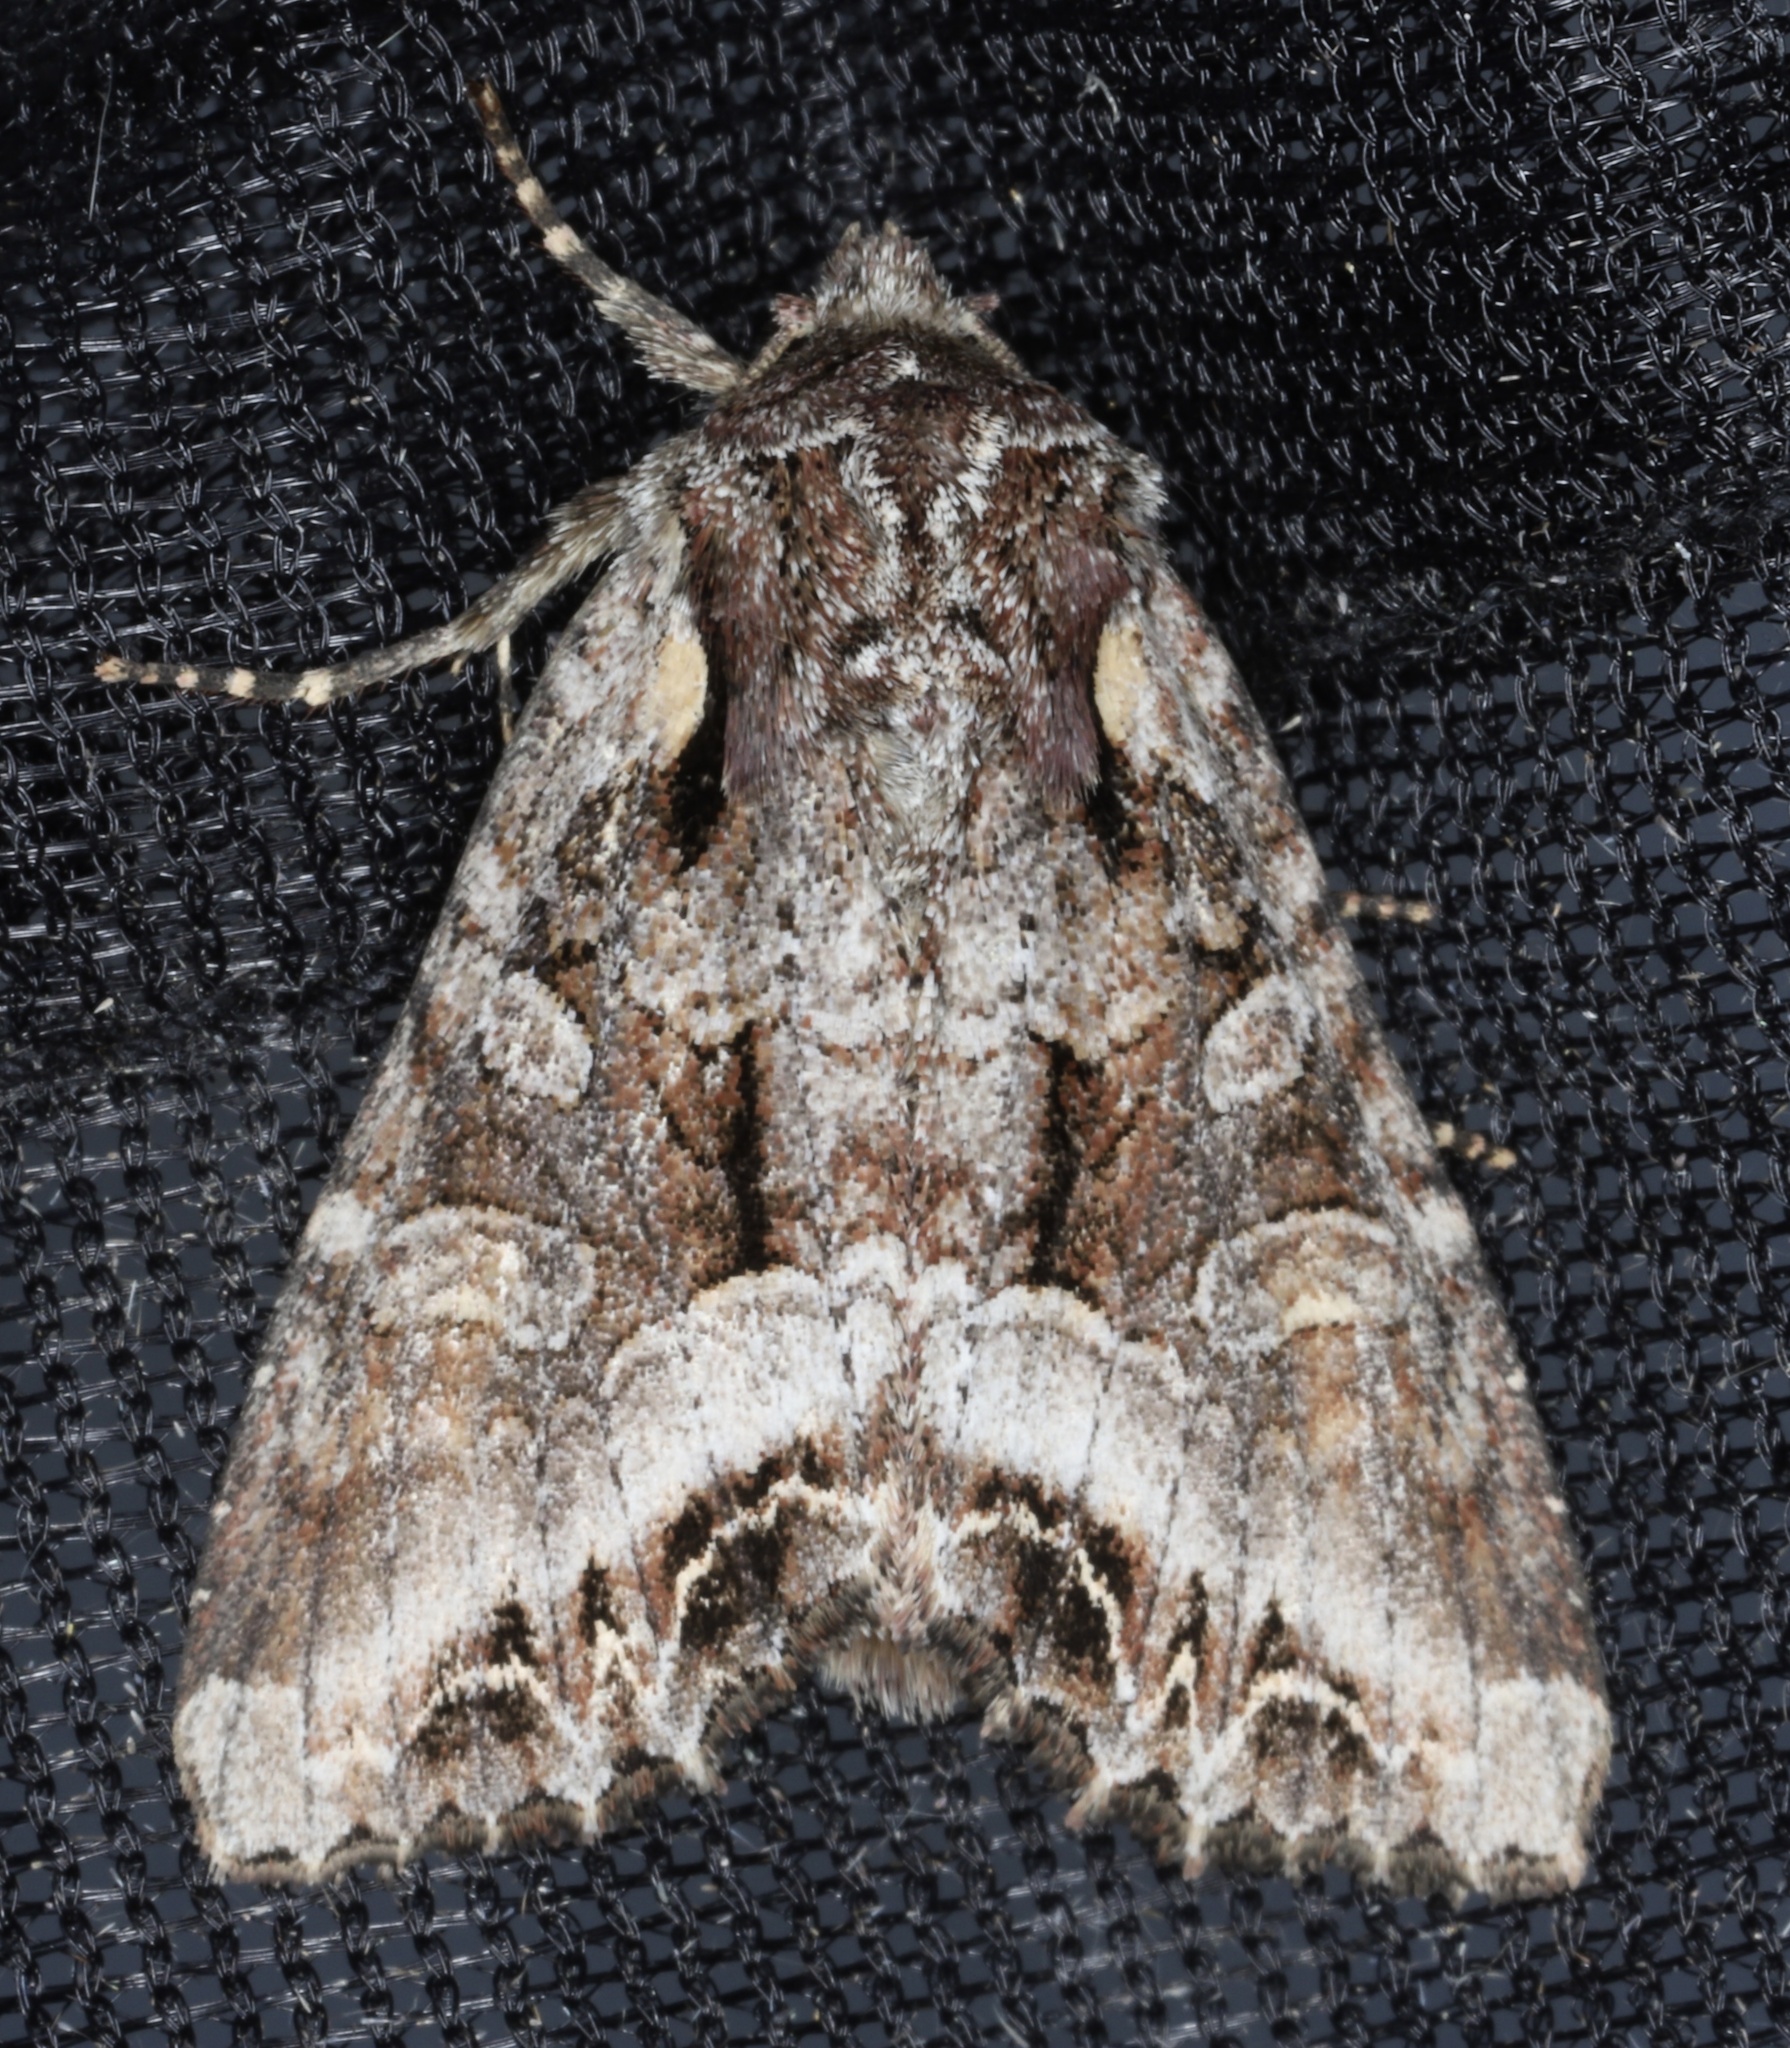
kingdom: Animalia
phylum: Arthropoda
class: Insecta
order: Lepidoptera
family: Noctuidae
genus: Lacanobia
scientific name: Lacanobia grandis
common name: Grand arches moth
